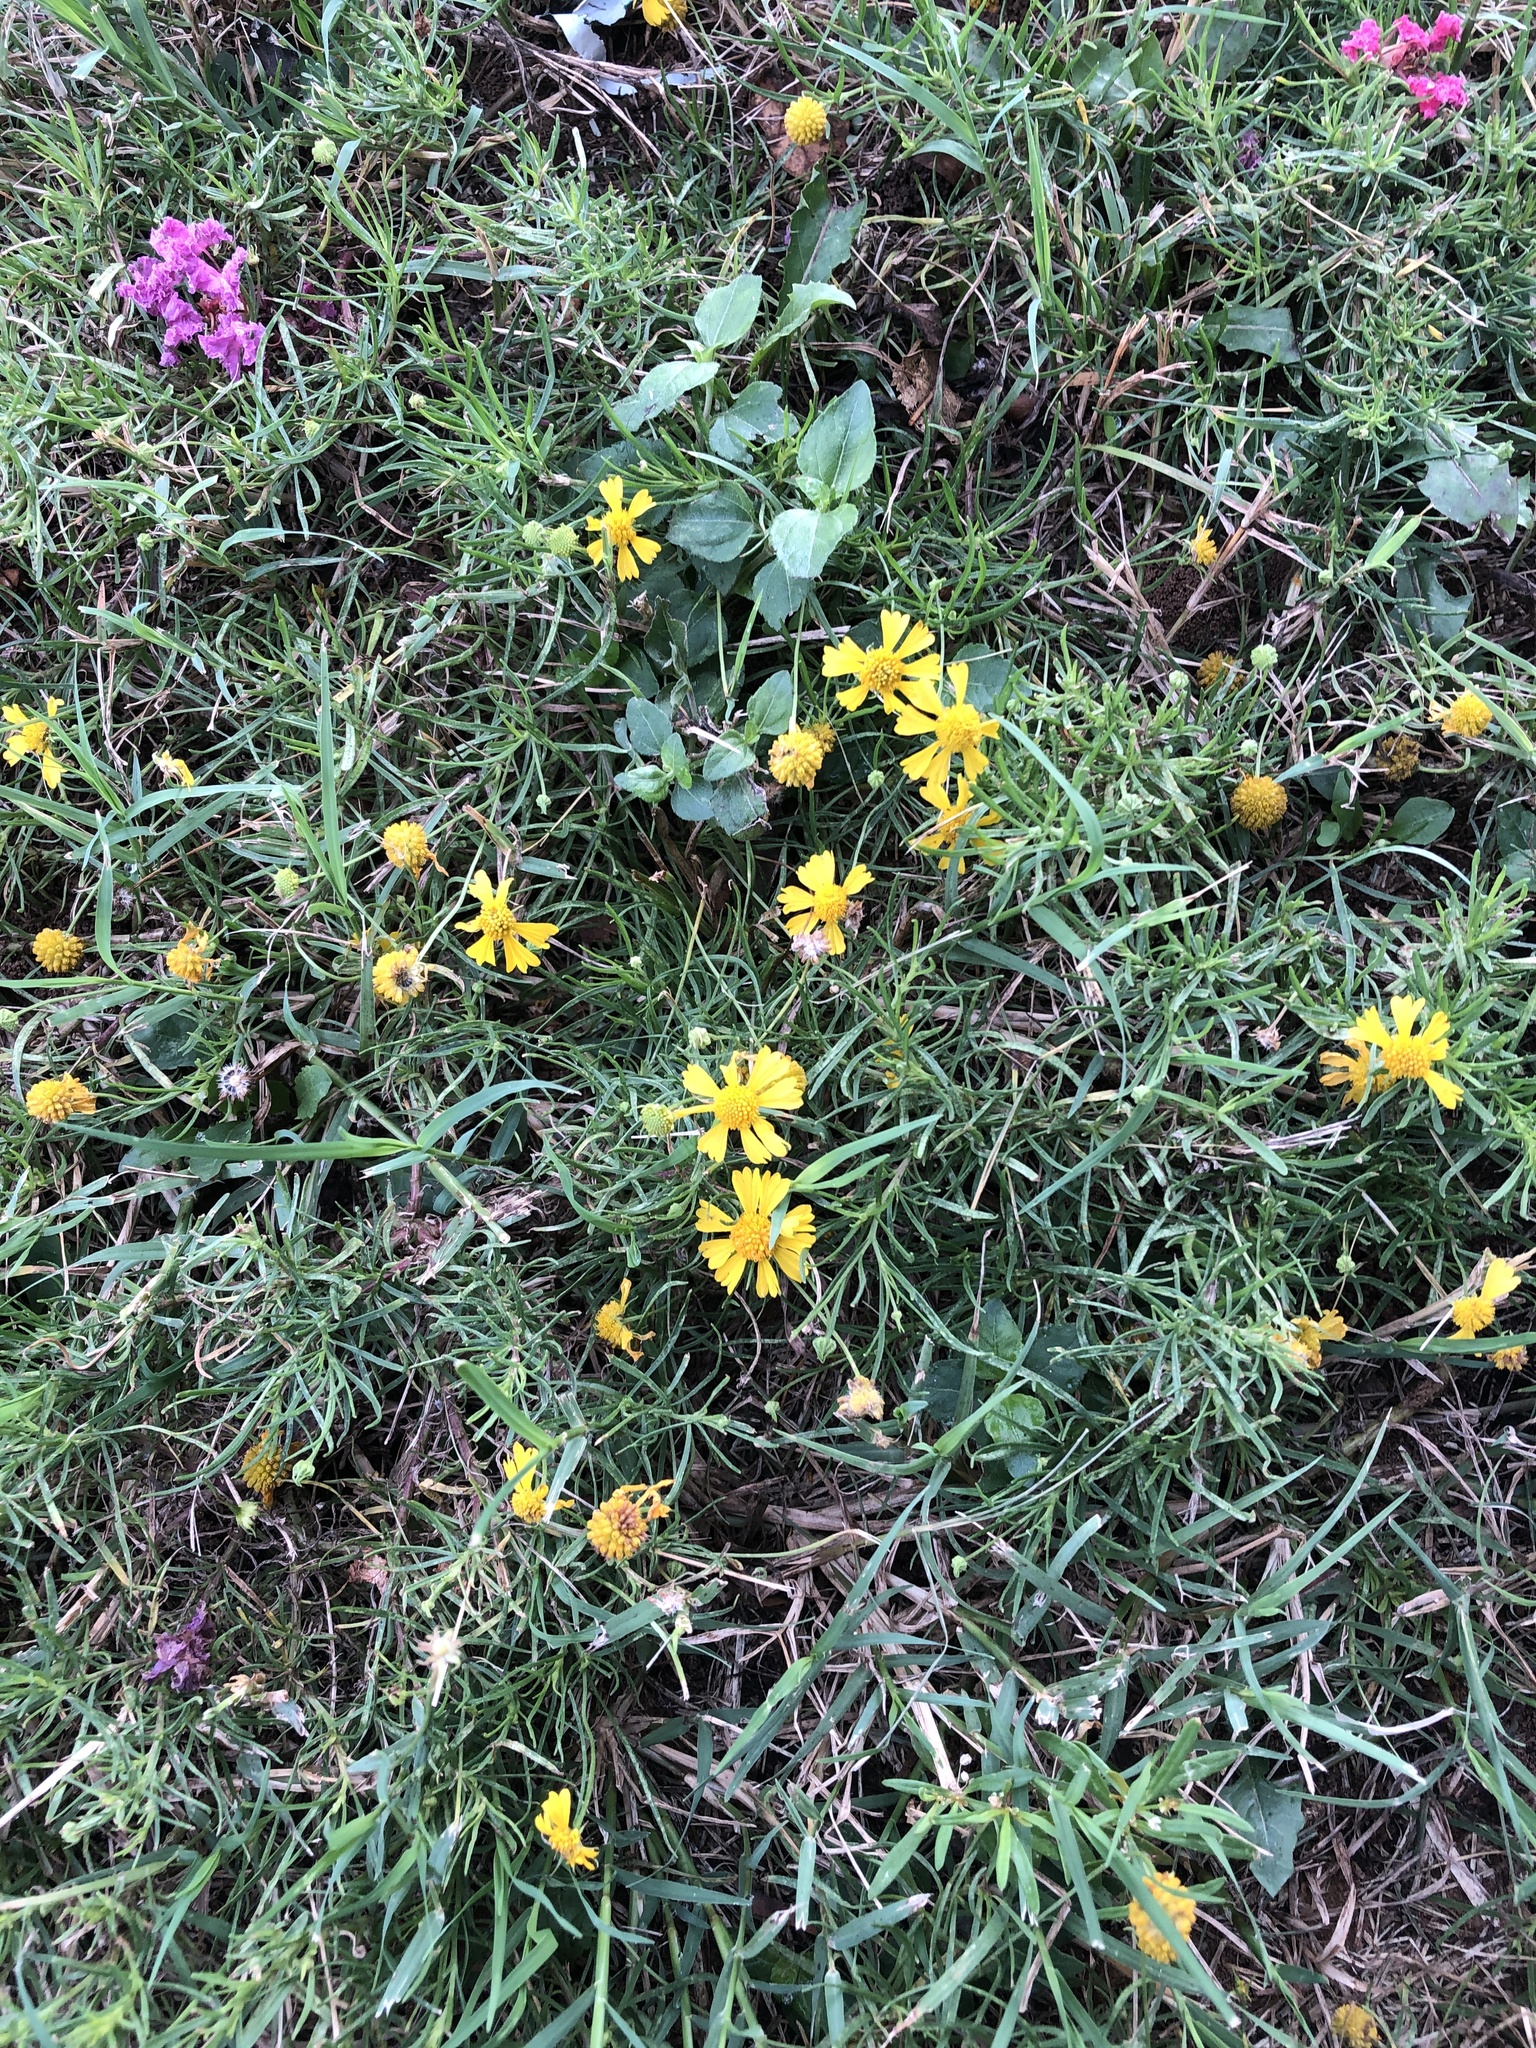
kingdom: Plantae
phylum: Tracheophyta
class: Magnoliopsida
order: Asterales
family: Asteraceae
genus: Helenium
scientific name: Helenium amarum
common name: Bitter sneezeweed
